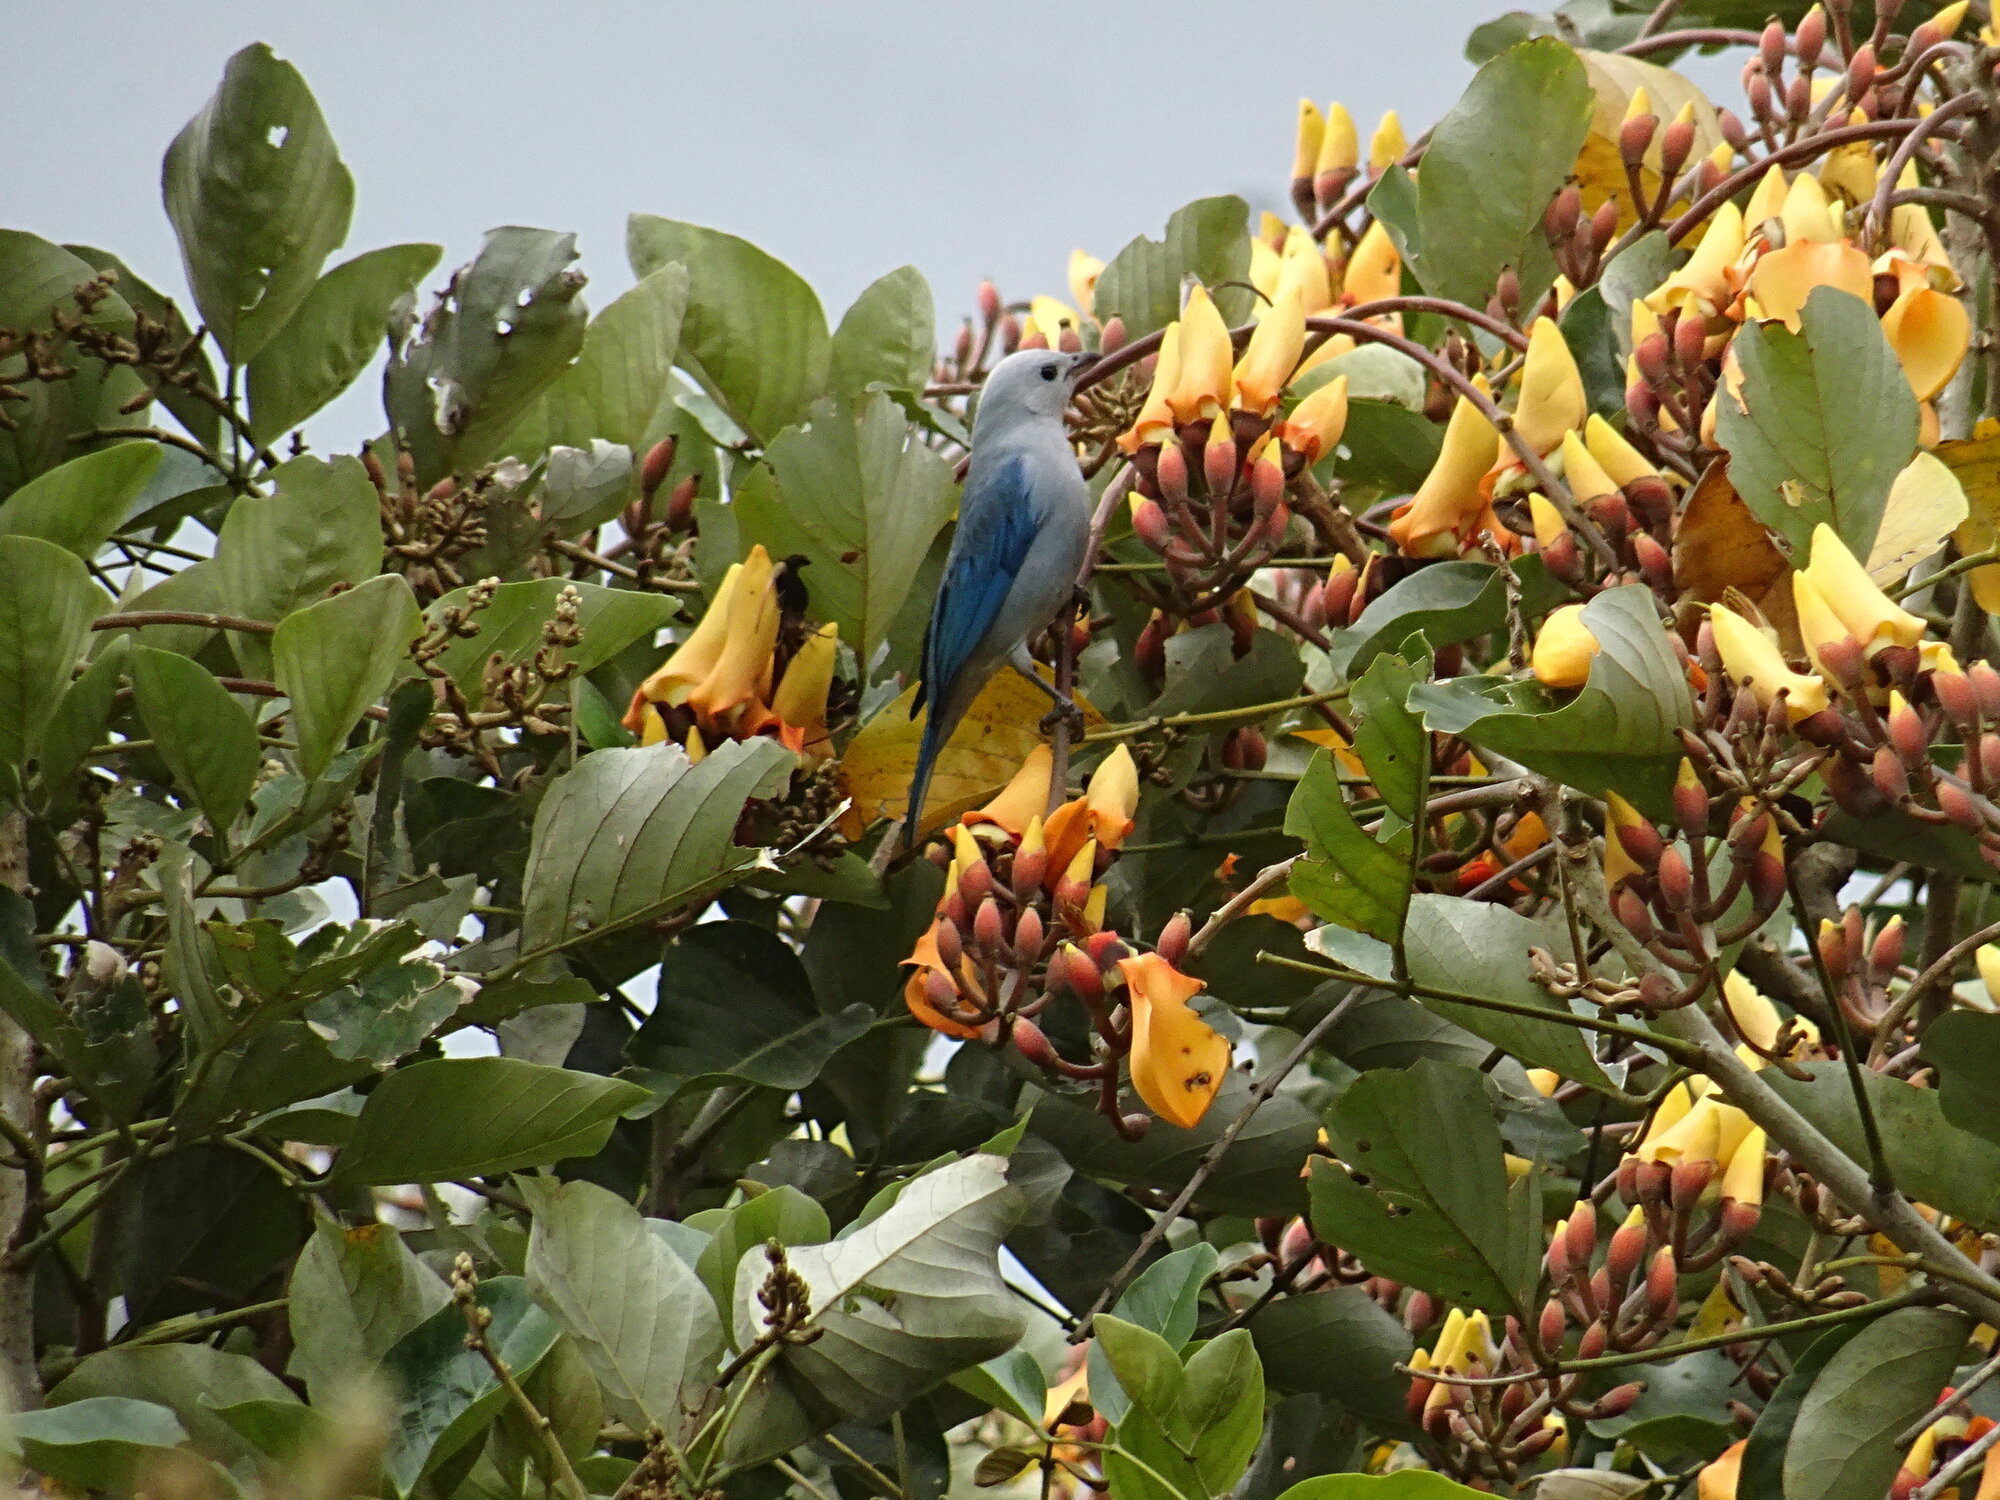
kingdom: Animalia
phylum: Chordata
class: Aves
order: Passeriformes
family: Thraupidae
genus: Thraupis
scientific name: Thraupis episcopus
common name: Blue-grey tanager
